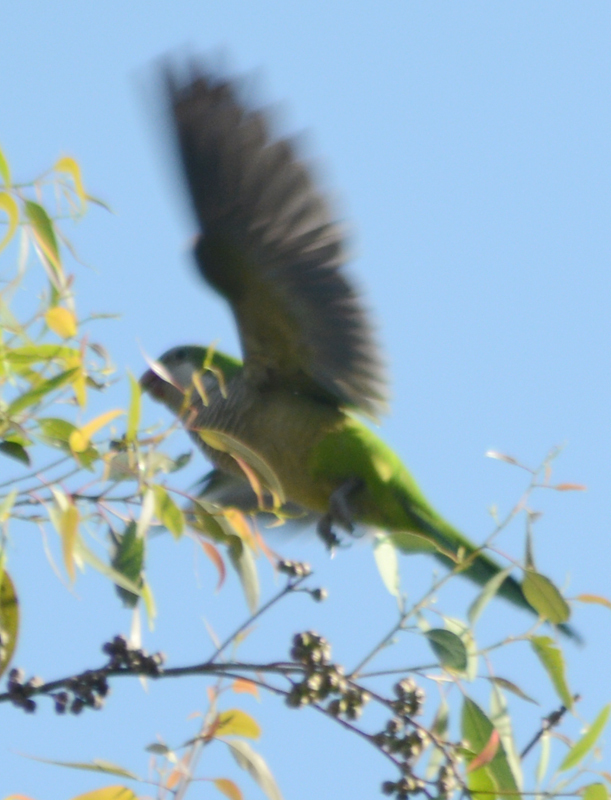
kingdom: Animalia
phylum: Chordata
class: Aves
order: Psittaciformes
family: Psittacidae
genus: Myiopsitta
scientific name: Myiopsitta monachus
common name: Monk parakeet
